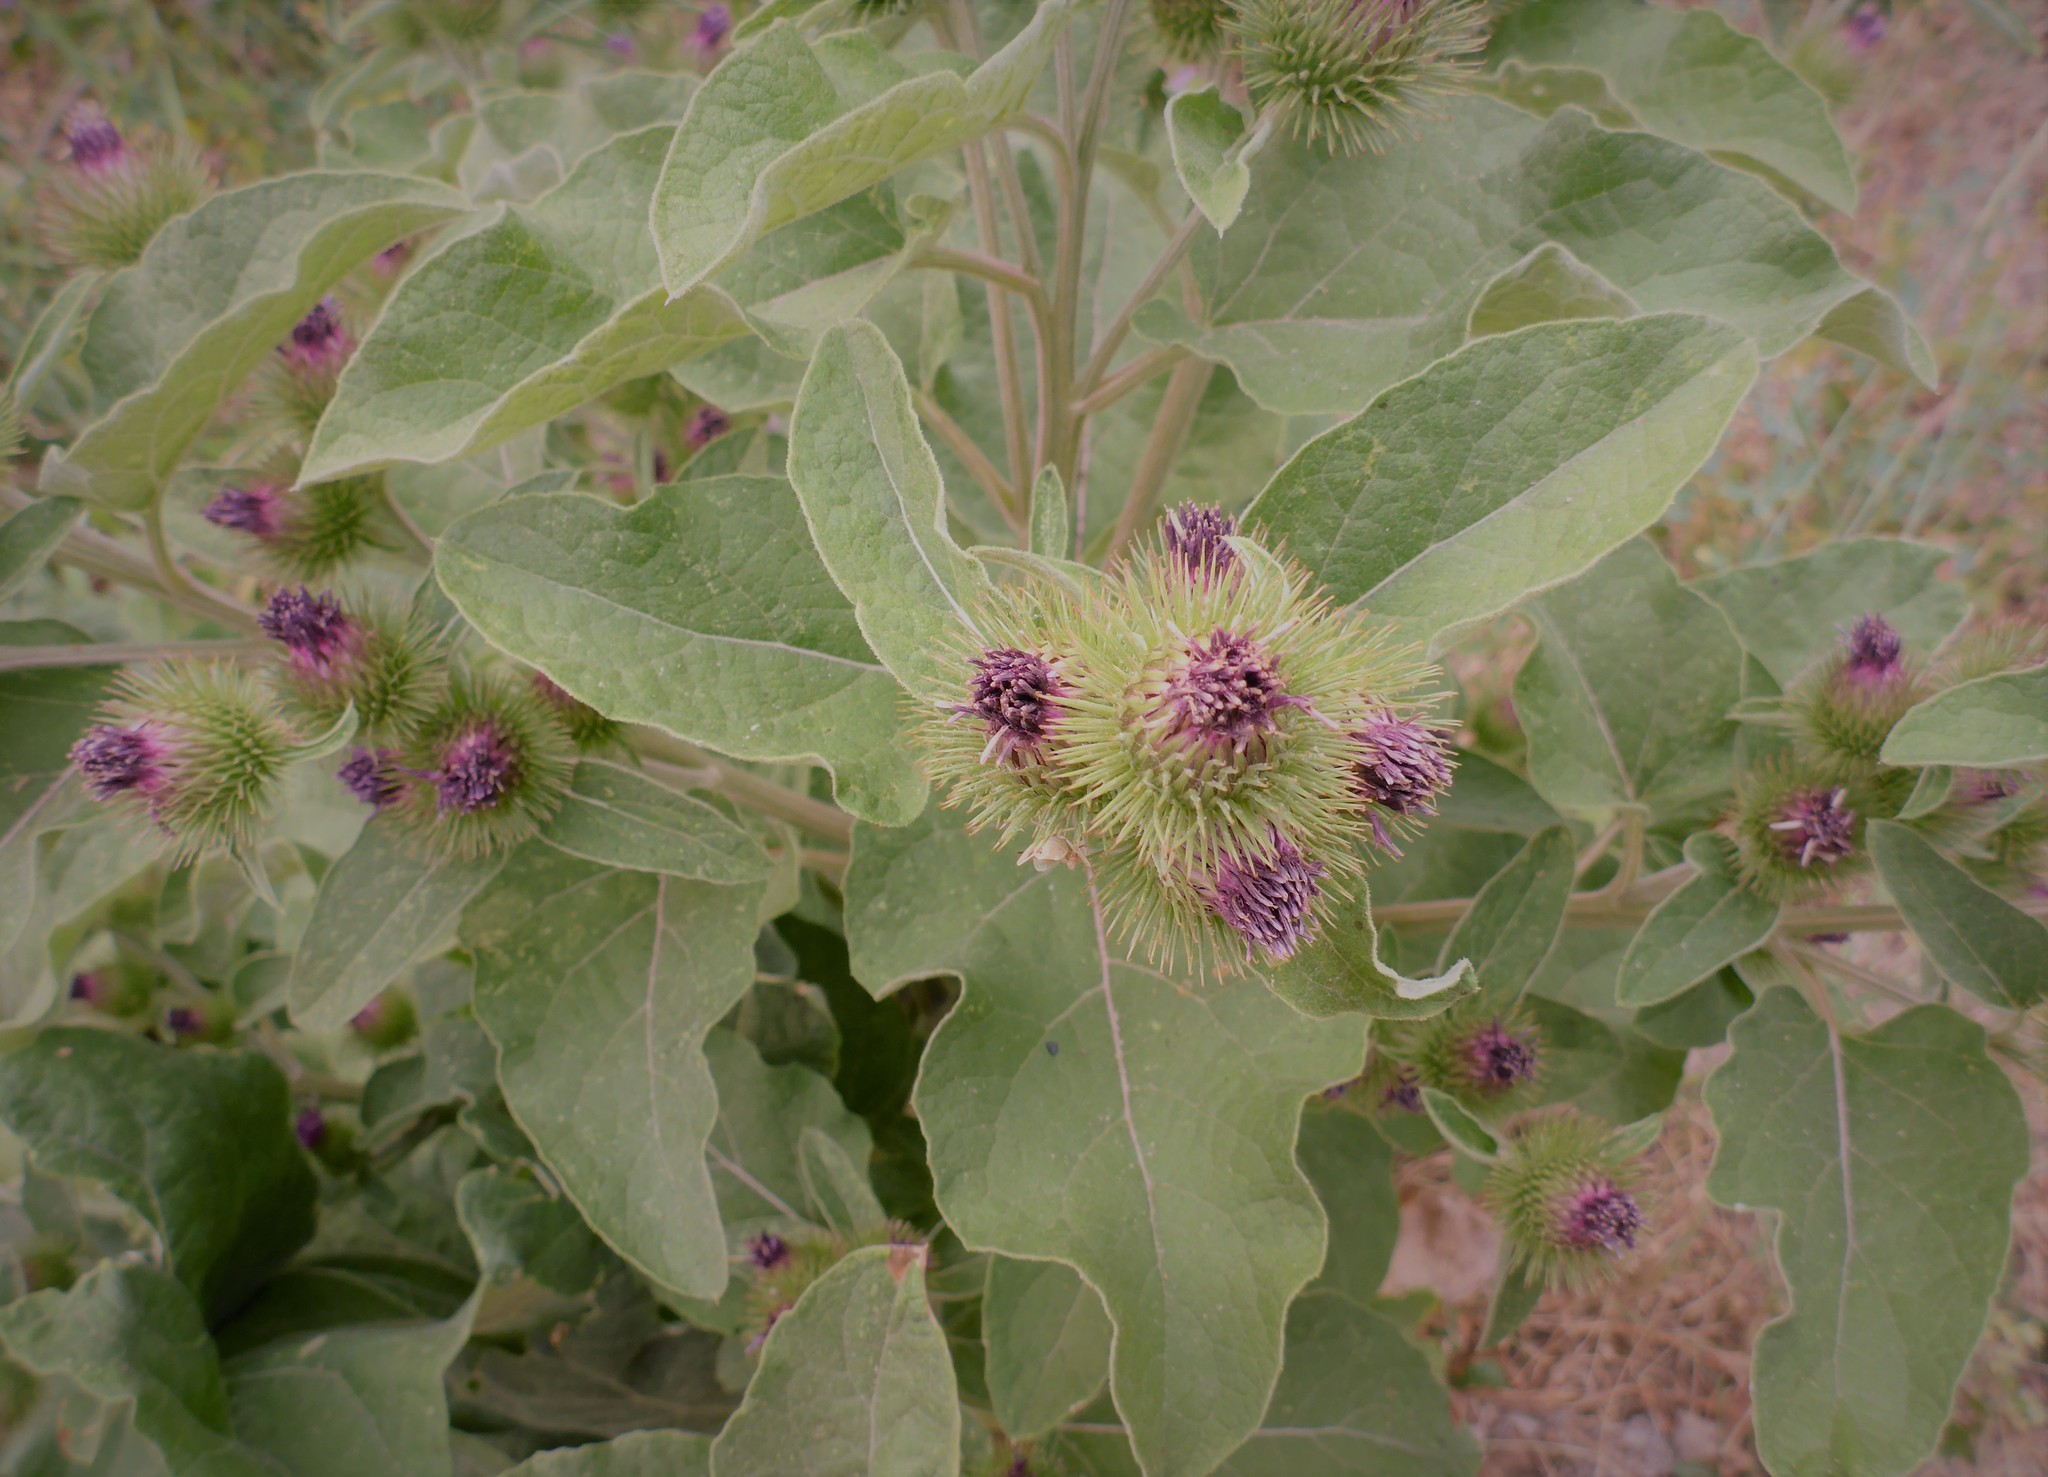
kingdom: Plantae
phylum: Tracheophyta
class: Magnoliopsida
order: Asterales
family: Asteraceae
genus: Arctium
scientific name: Arctium minus
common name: Lesser burdock
